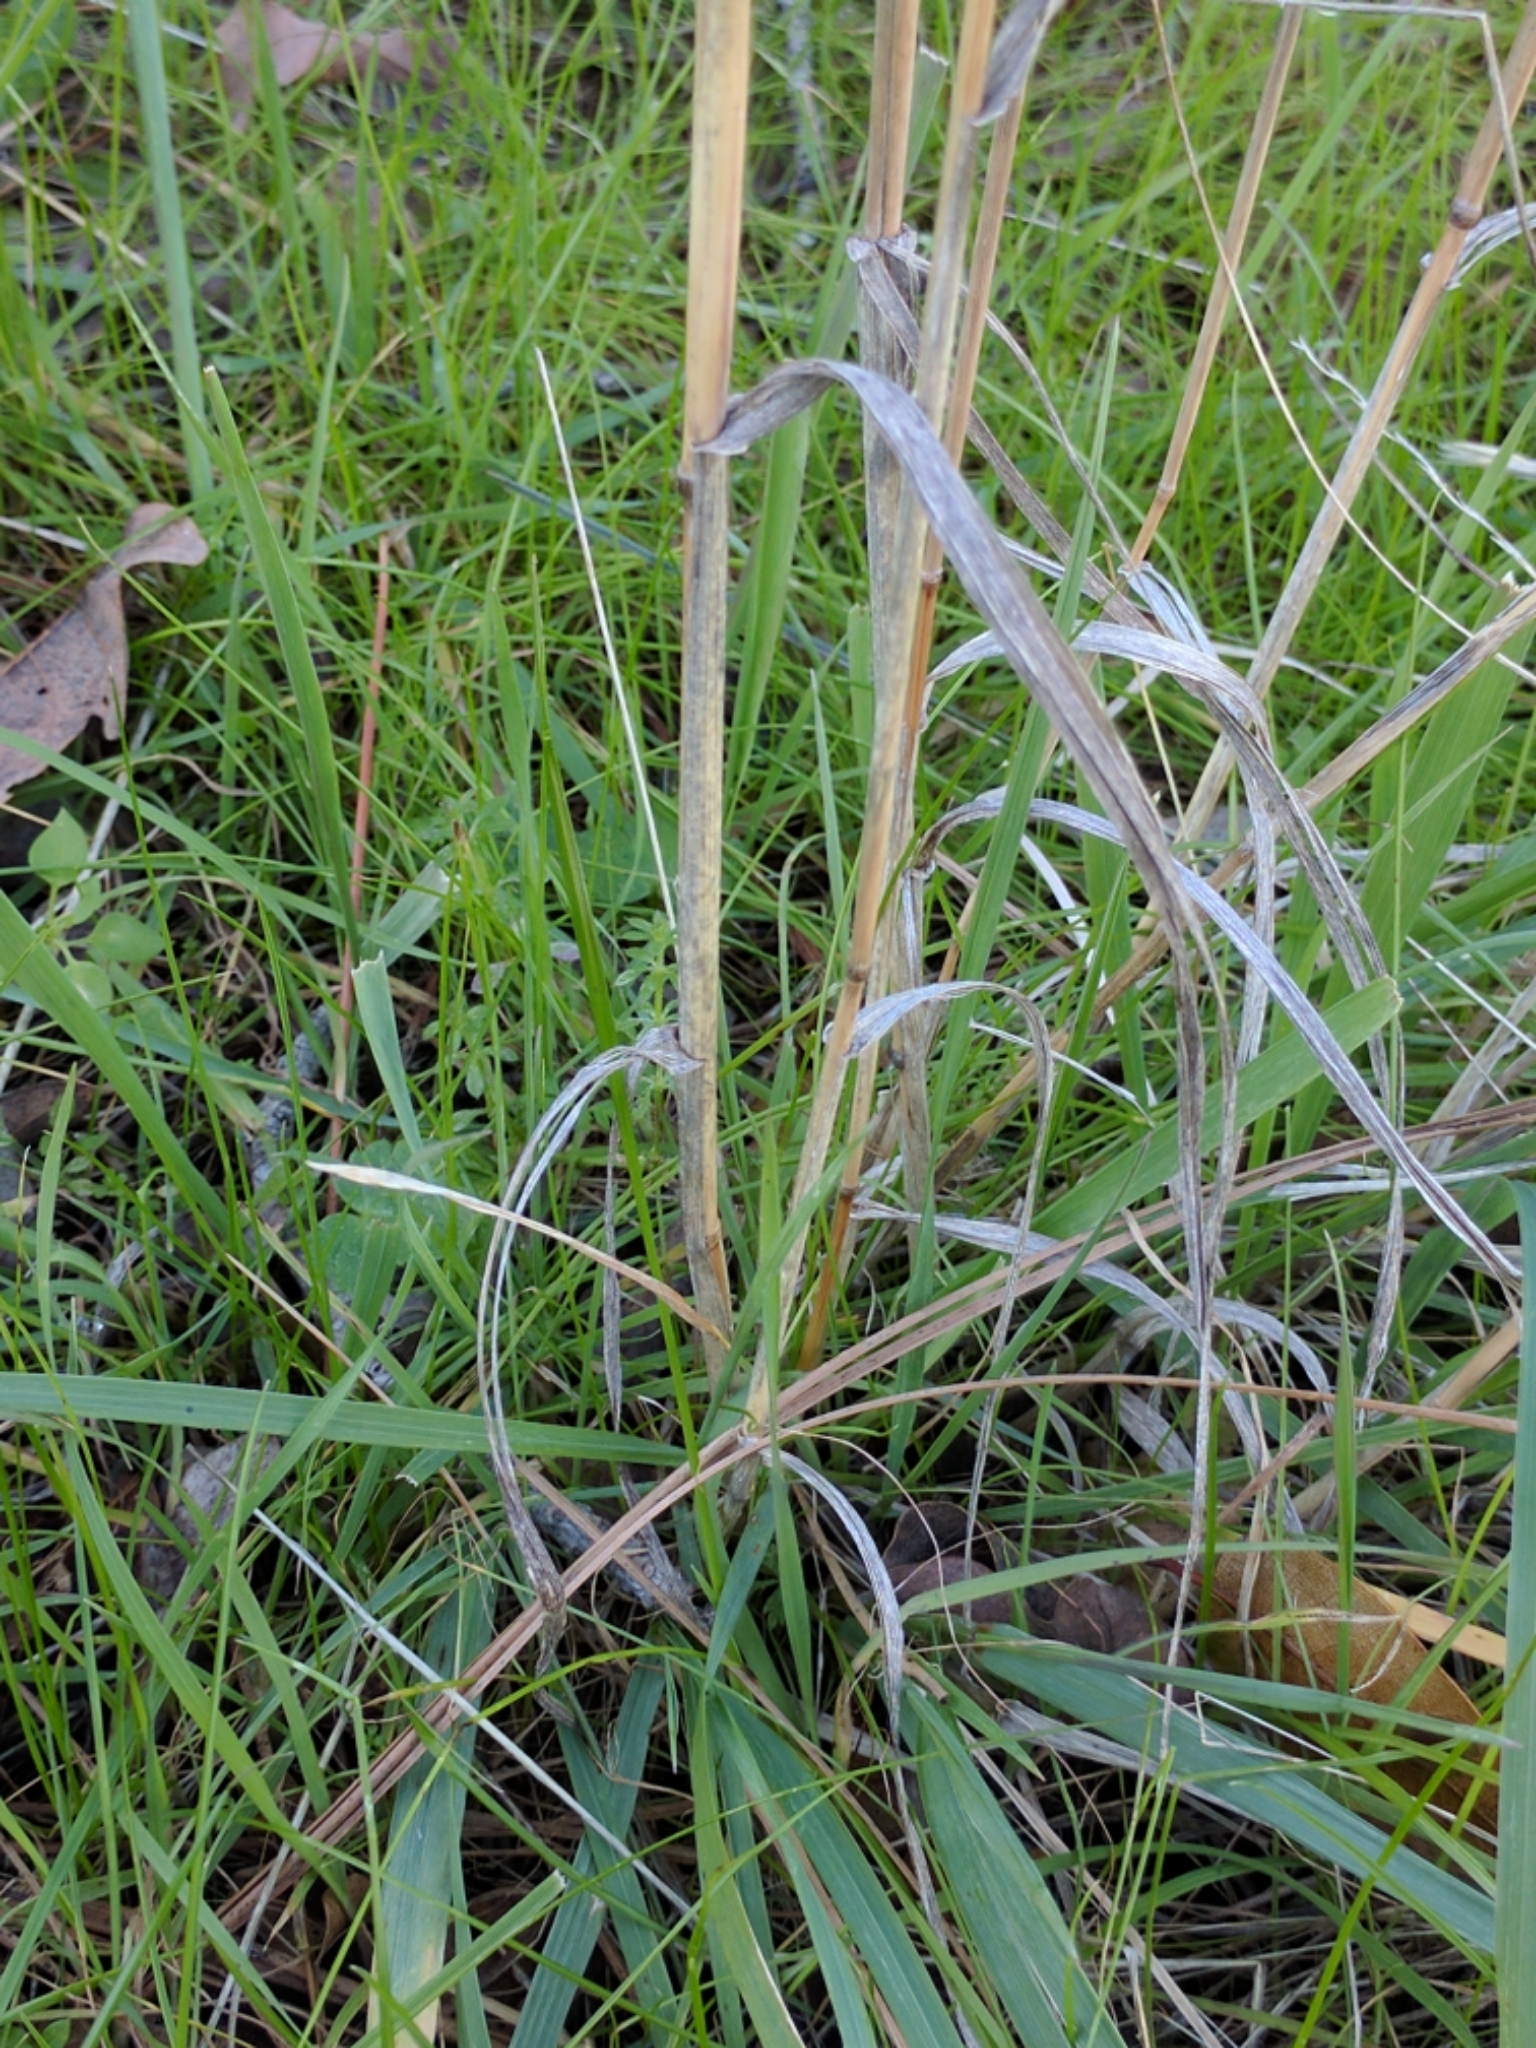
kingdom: Plantae
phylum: Tracheophyta
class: Liliopsida
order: Poales
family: Poaceae
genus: Elymus
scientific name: Elymus glaucus
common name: Blue wild rye
